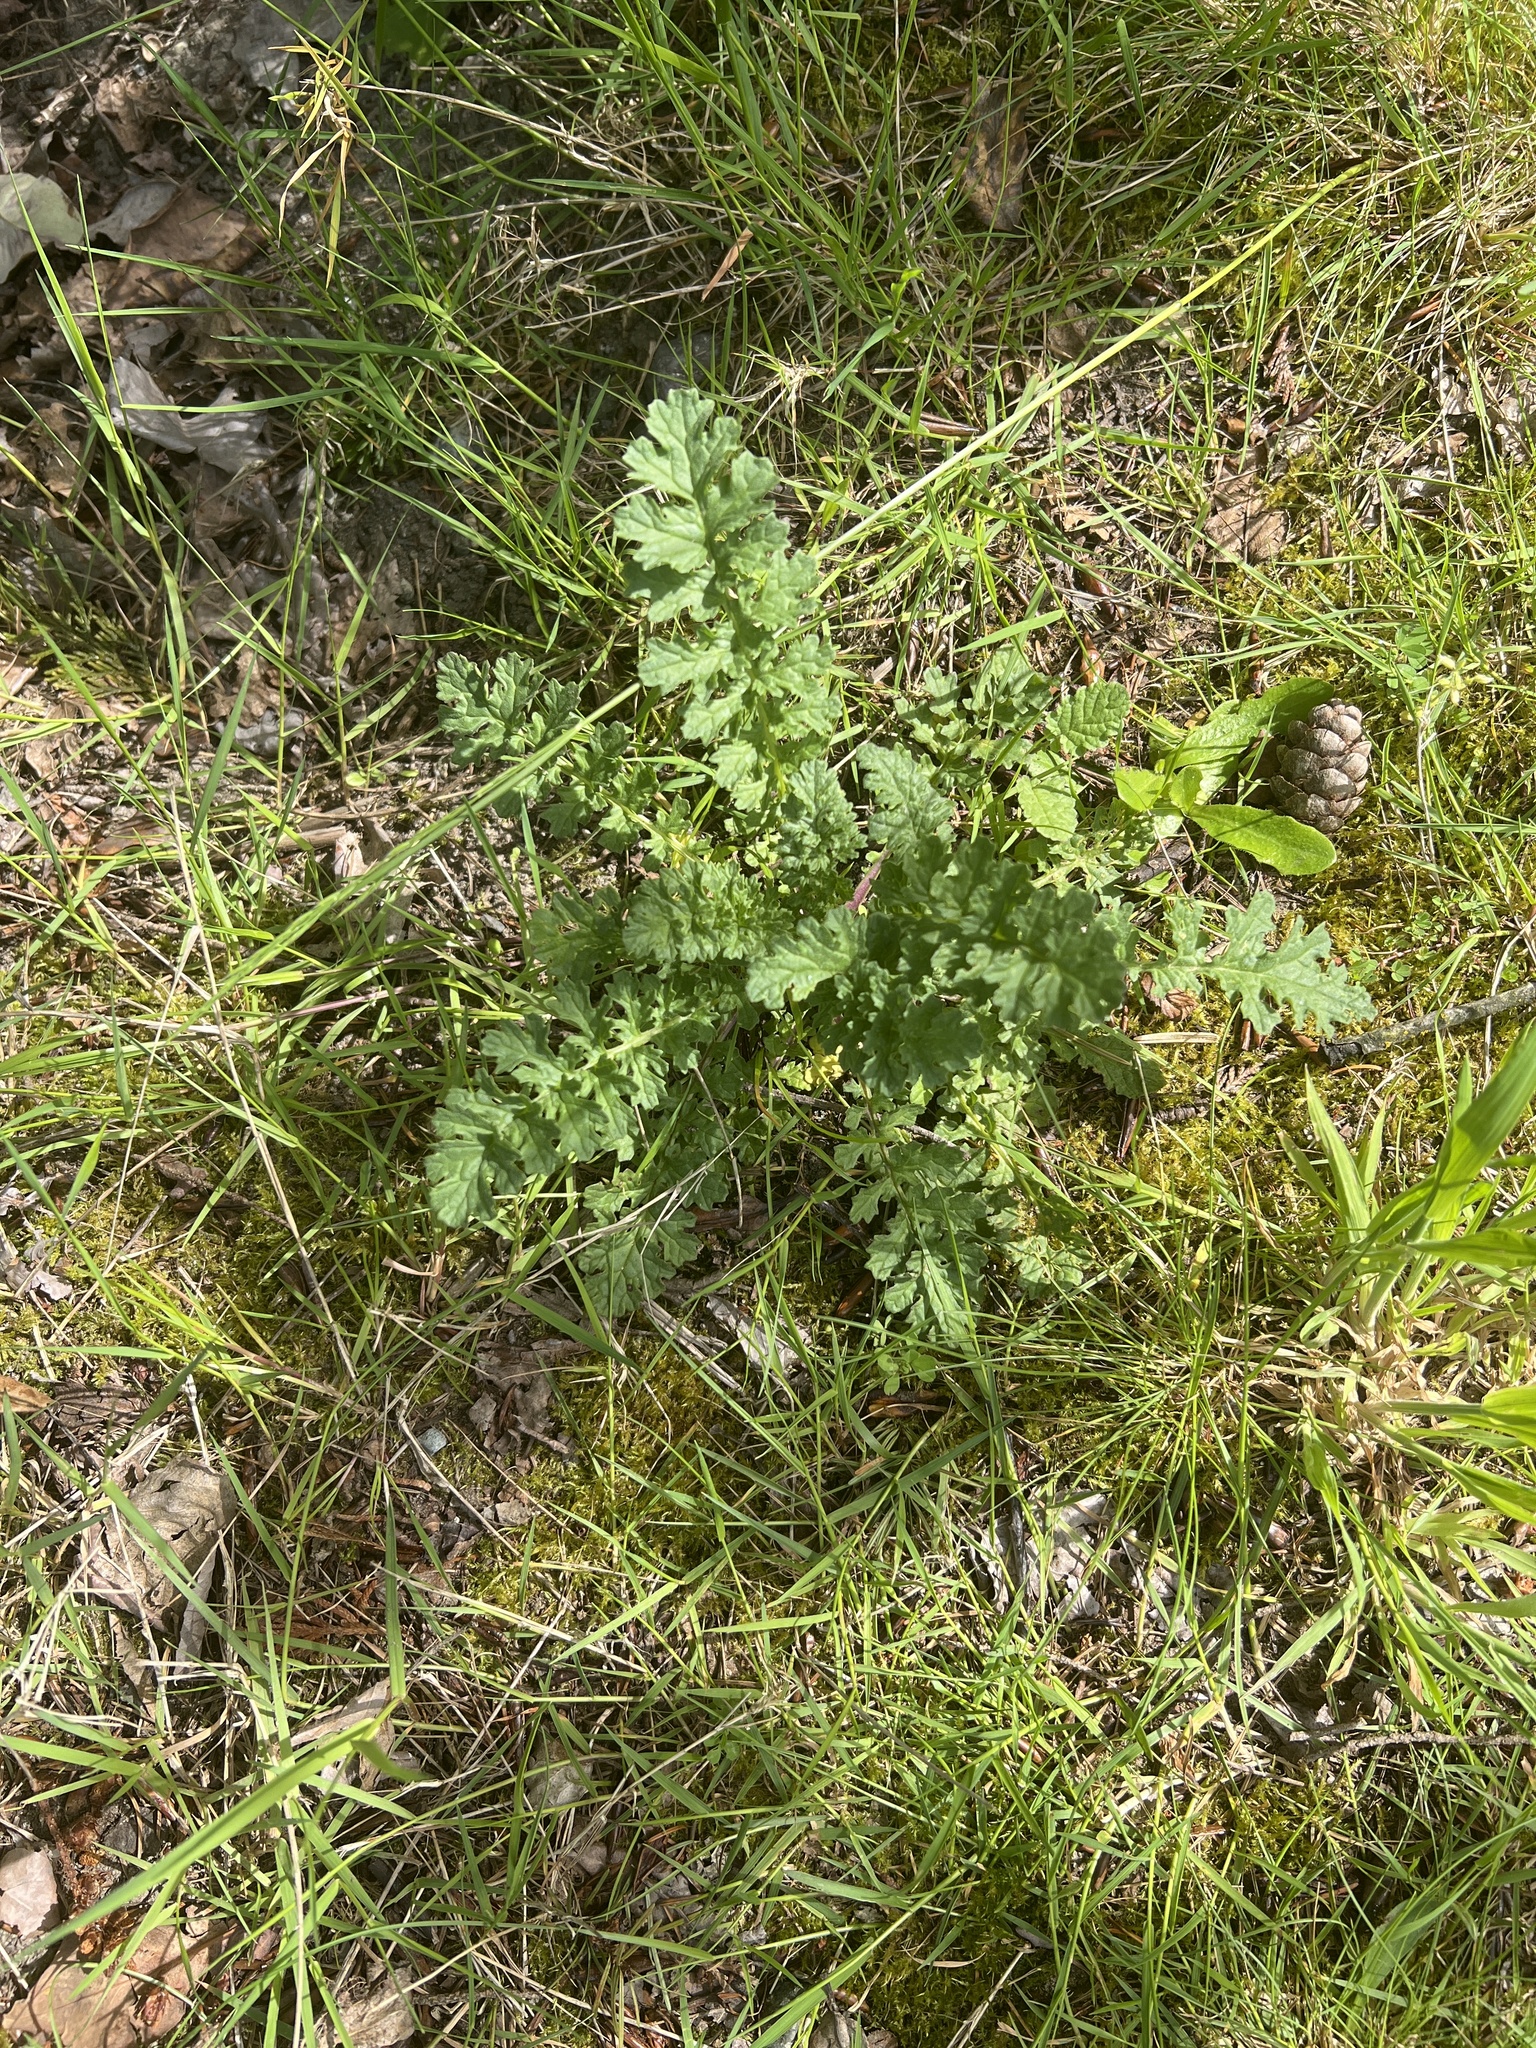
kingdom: Plantae
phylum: Tracheophyta
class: Magnoliopsida
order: Asterales
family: Asteraceae
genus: Jacobaea
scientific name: Jacobaea vulgaris
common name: Stinking willie
